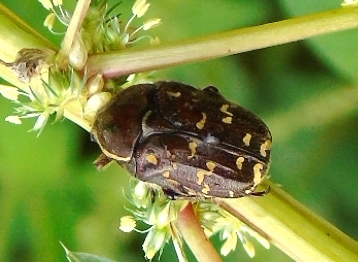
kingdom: Animalia
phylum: Arthropoda
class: Insecta
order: Coleoptera
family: Scarabaeidae
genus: Euphoria
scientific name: Euphoria leucographa
